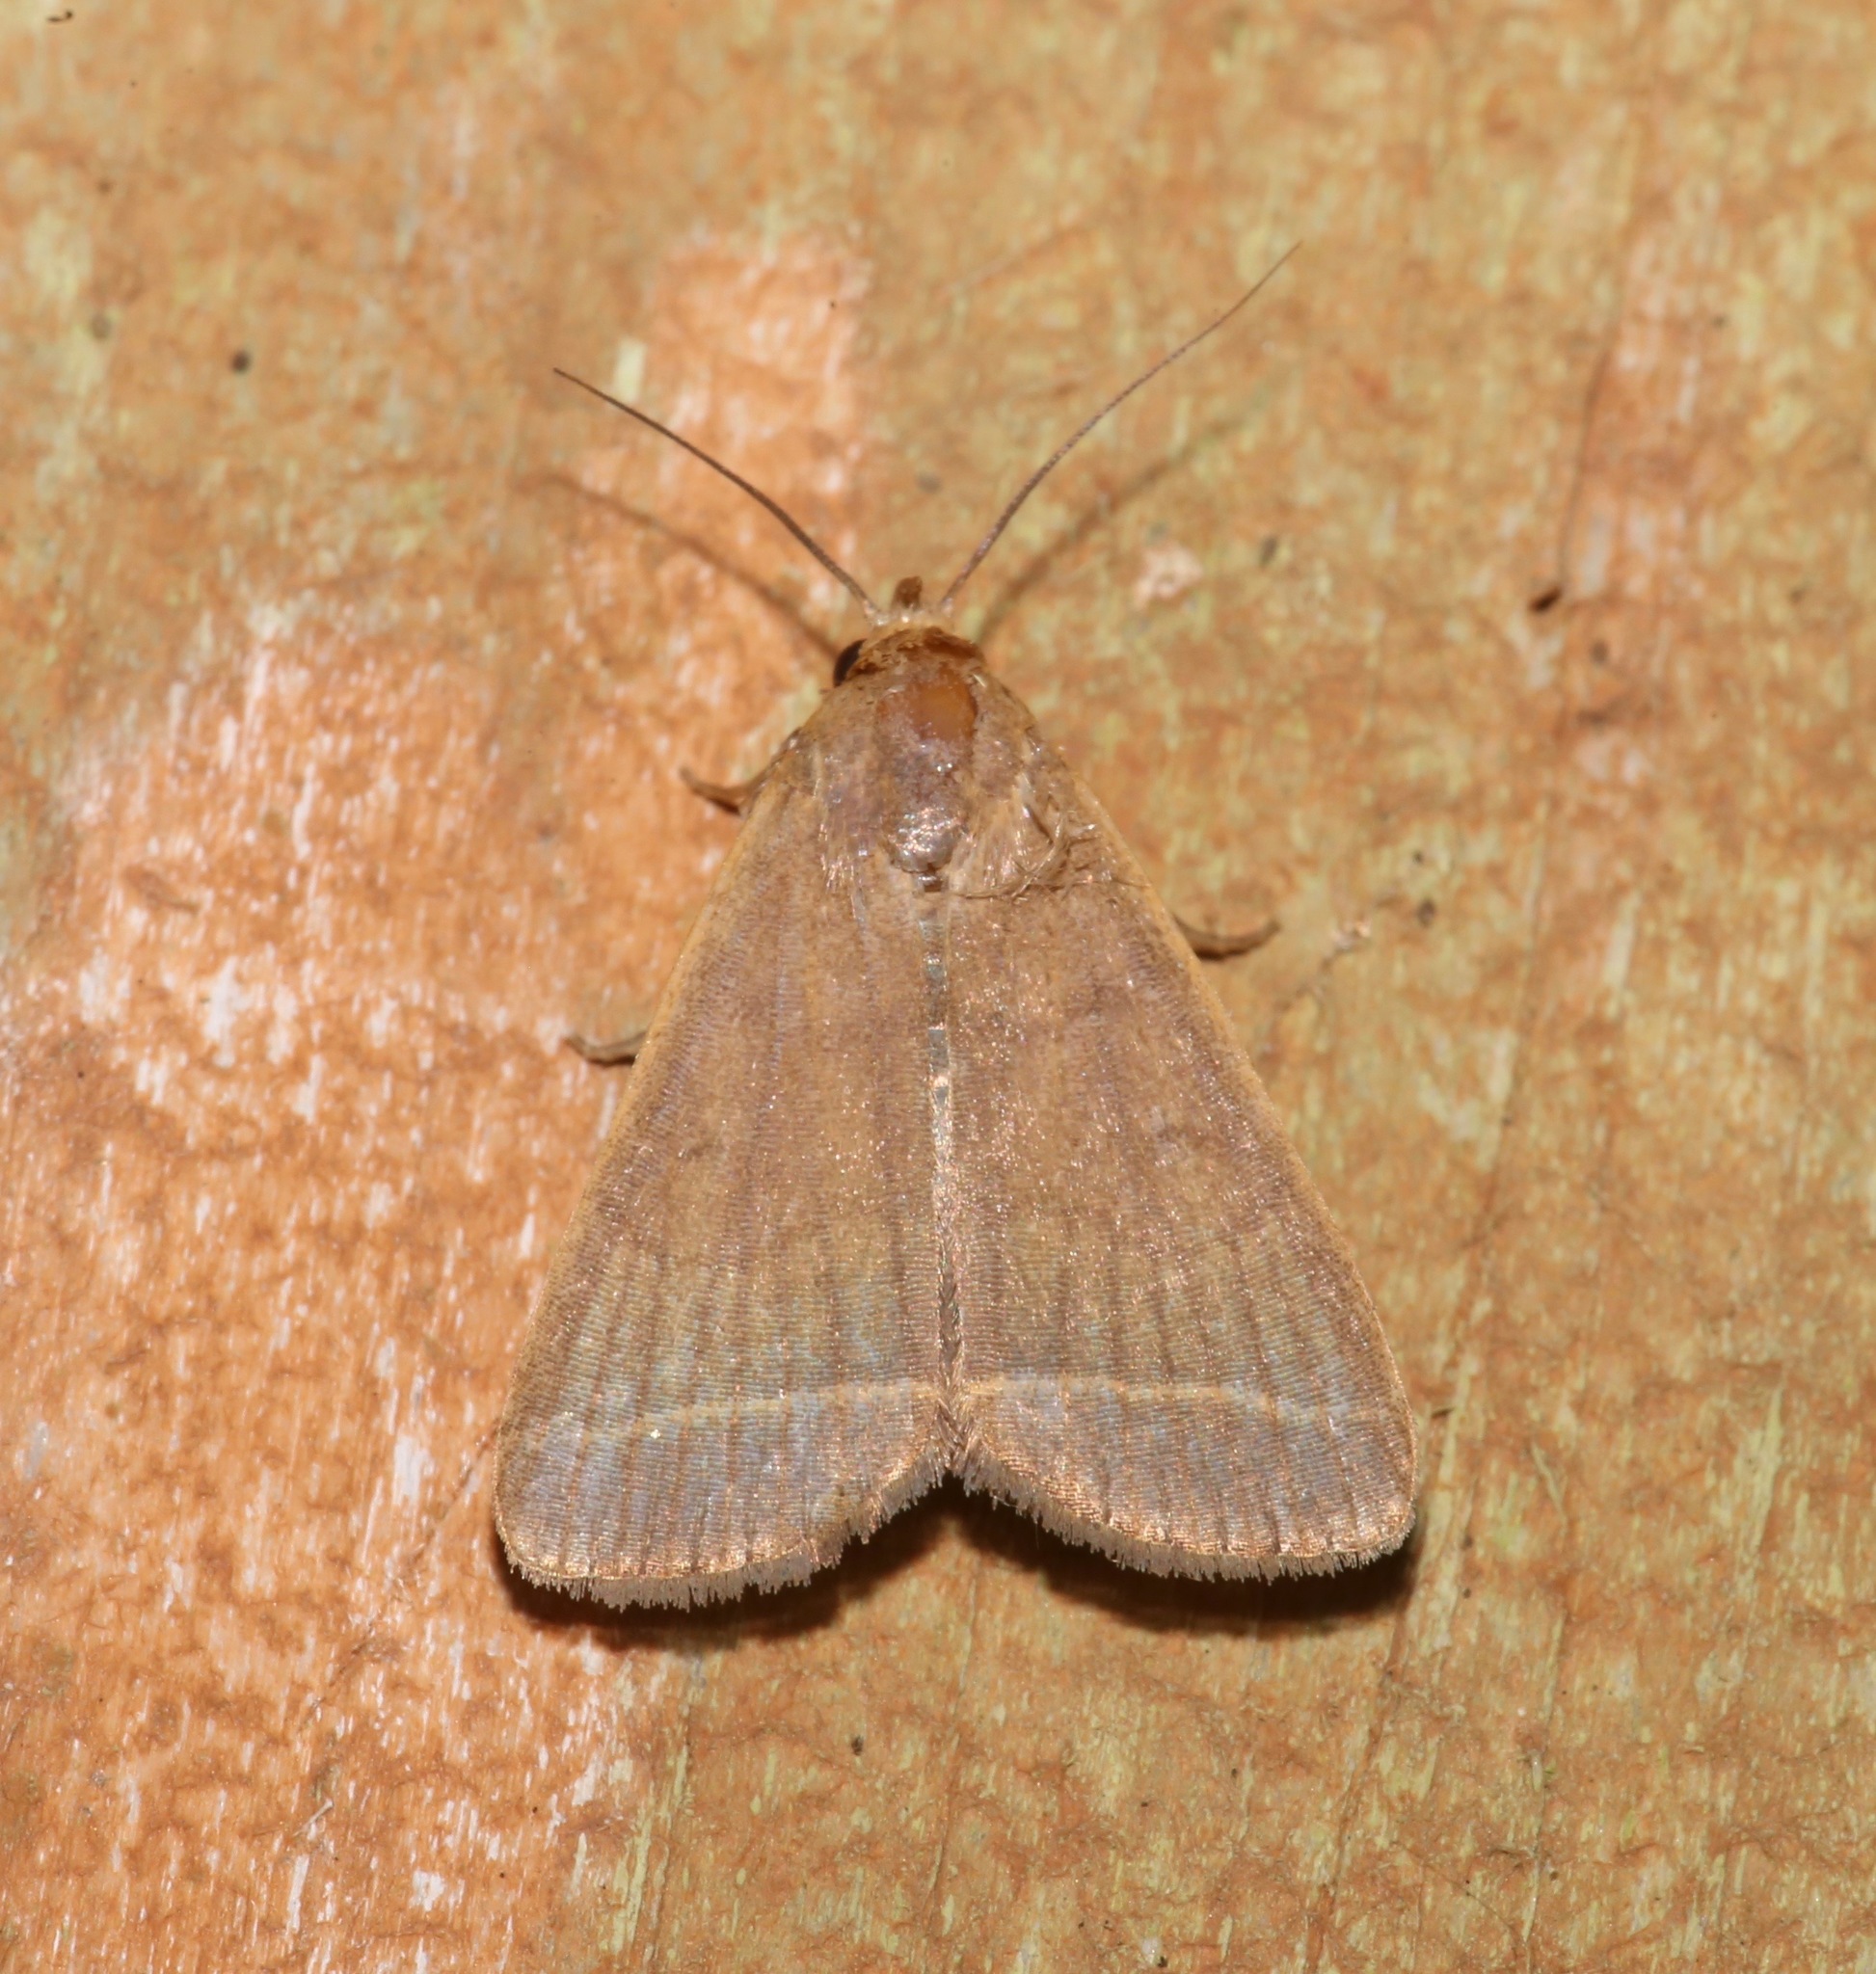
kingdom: Animalia
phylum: Arthropoda
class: Insecta
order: Lepidoptera
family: Erebidae
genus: Simplicia
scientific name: Simplicia cornicalis
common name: Tiki hut litter moth
